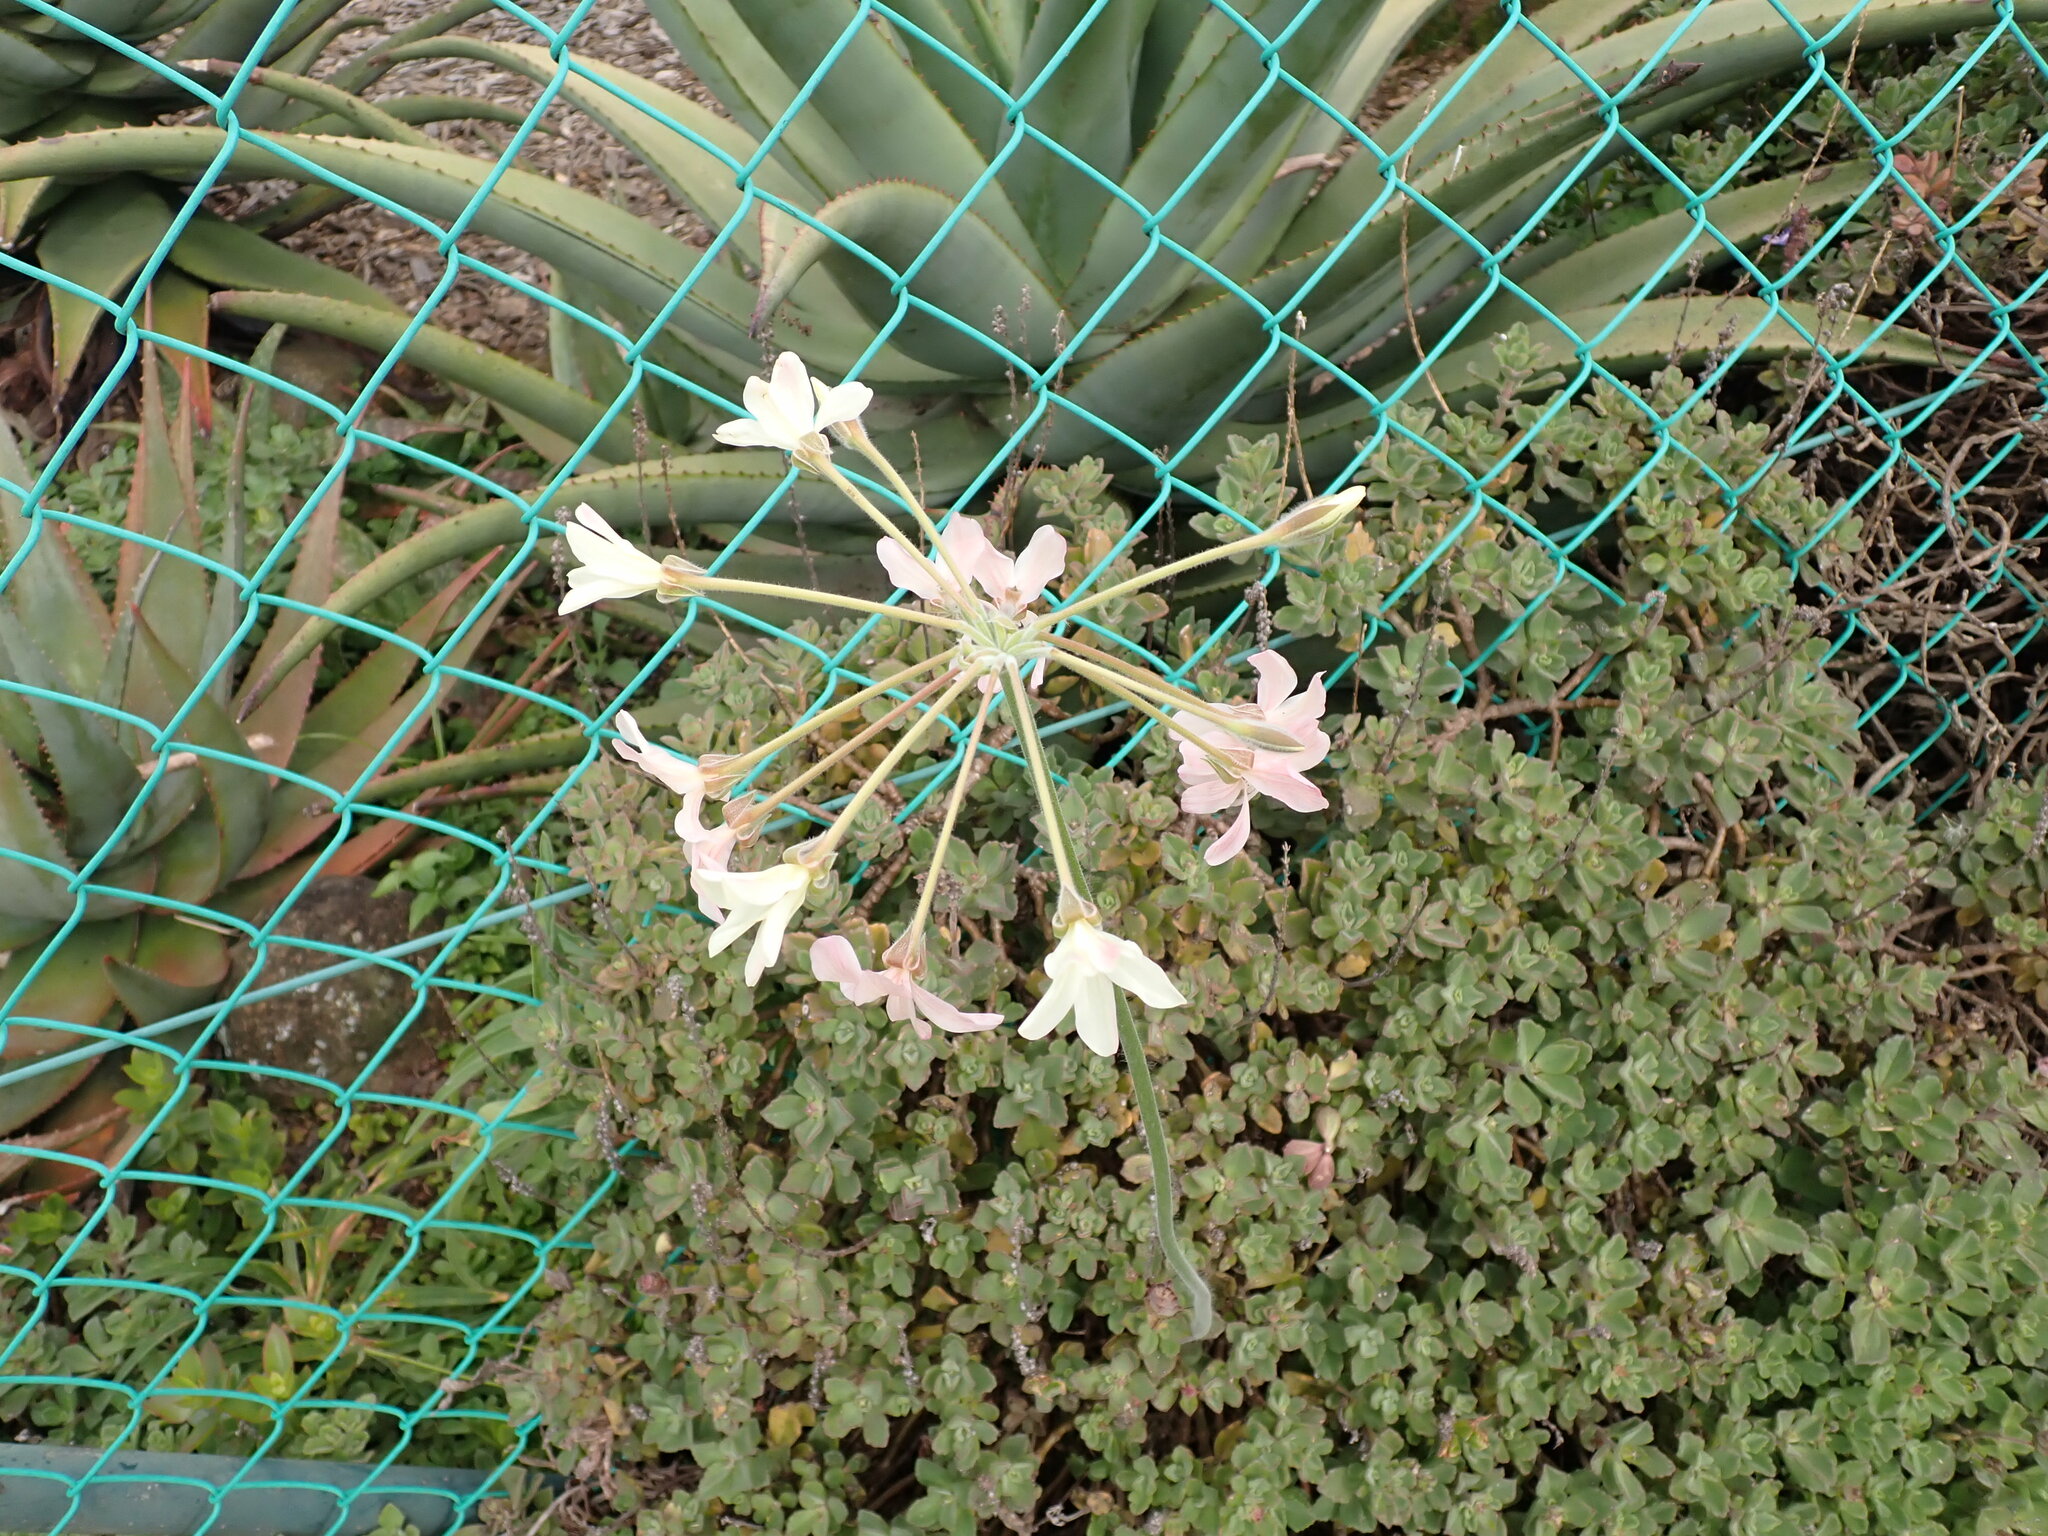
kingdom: Plantae
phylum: Tracheophyta
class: Magnoliopsida
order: Geraniales
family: Geraniaceae
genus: Pelargonium
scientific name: Pelargonium luridum
